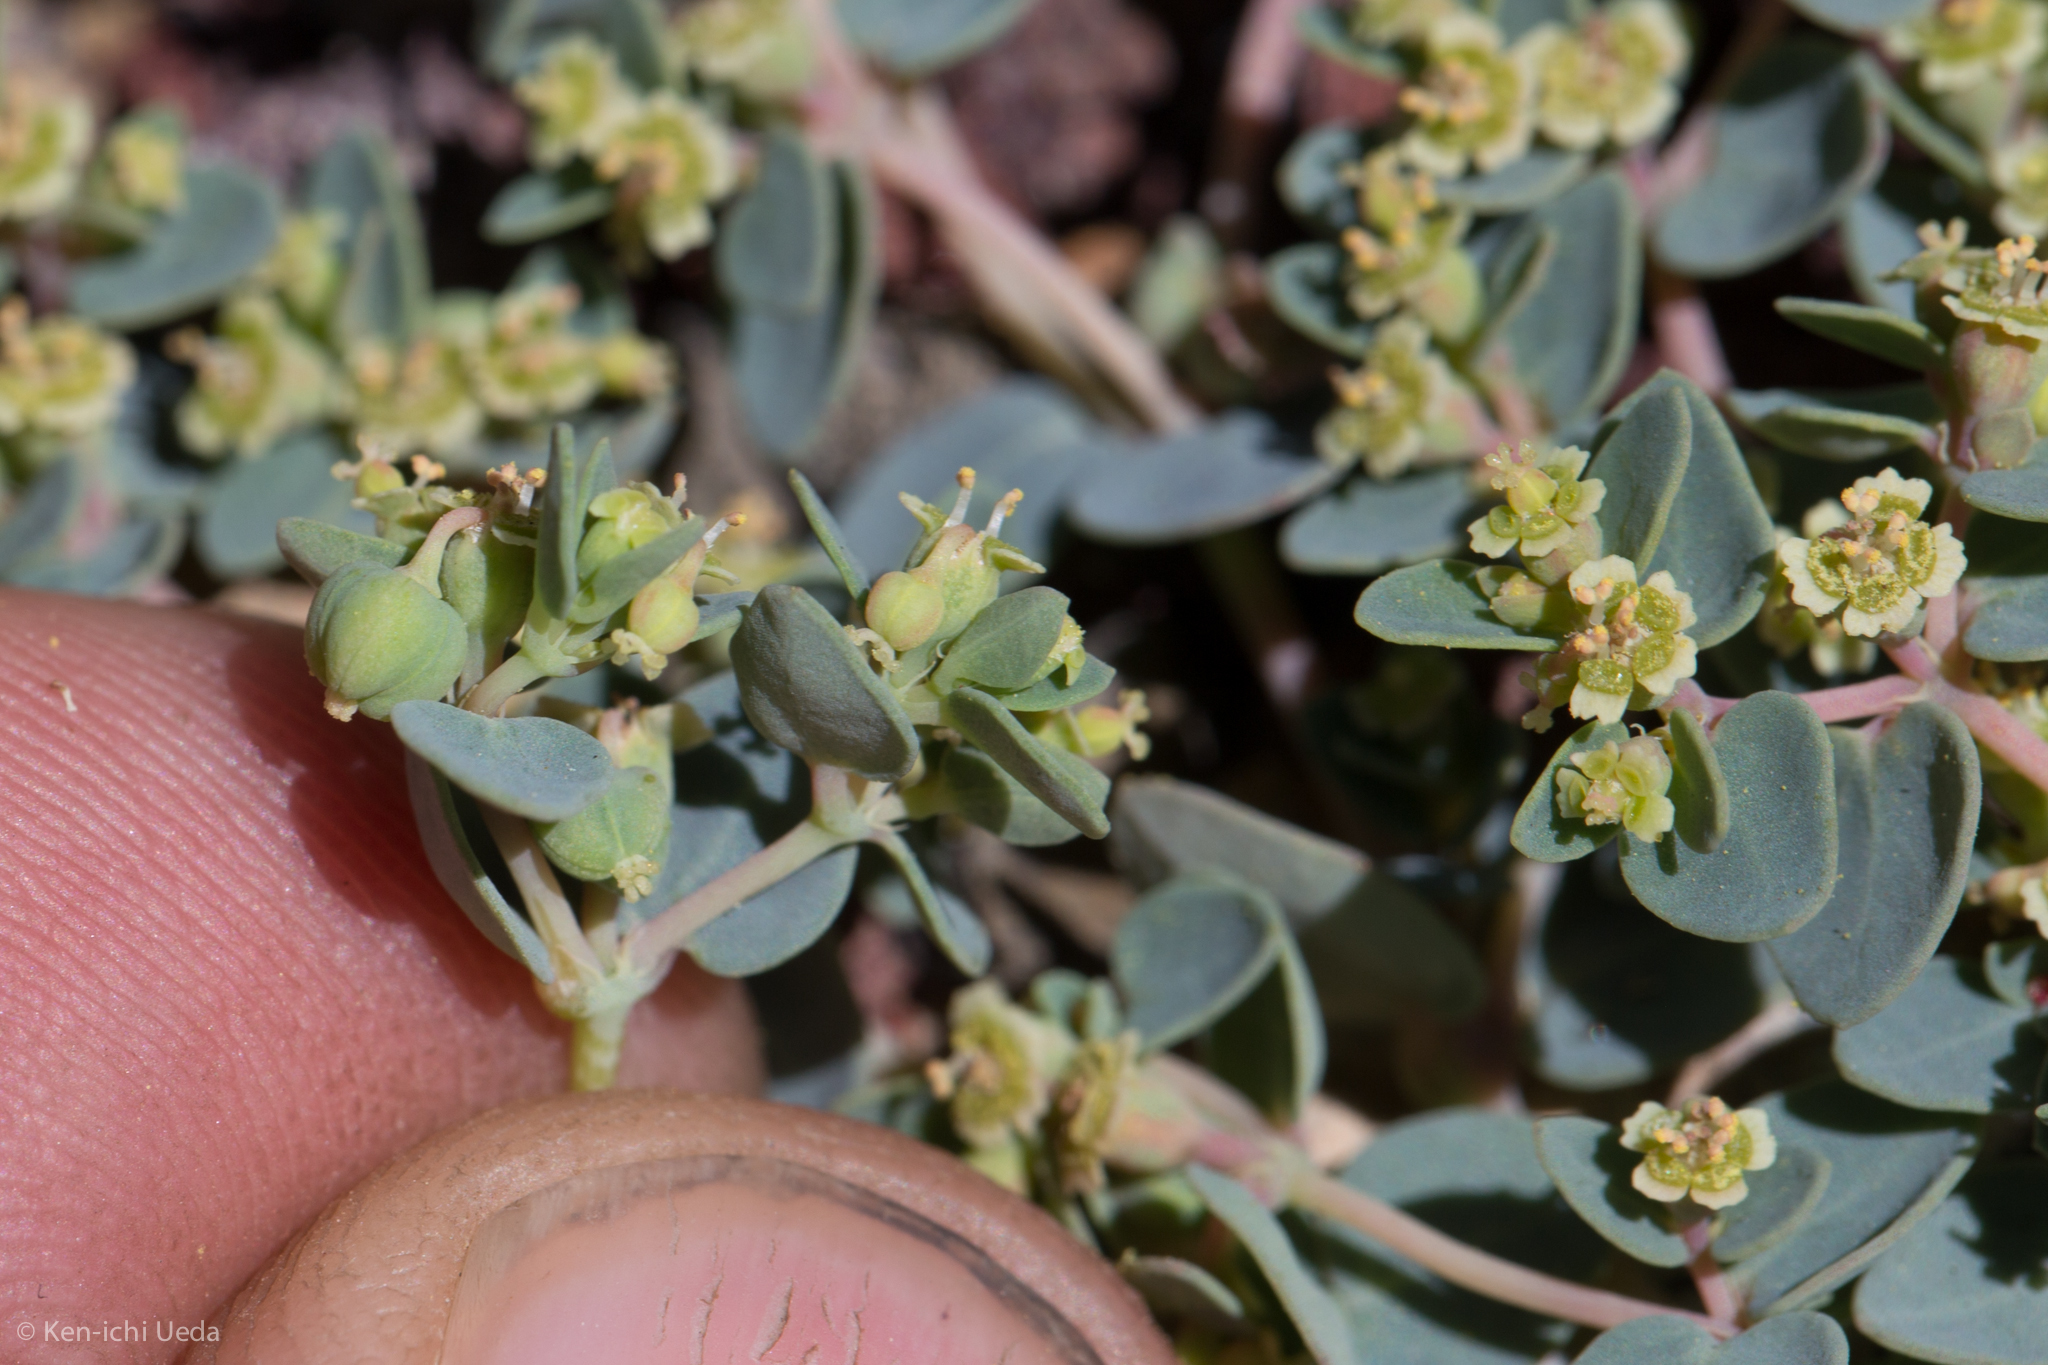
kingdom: Plantae
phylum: Tracheophyta
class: Magnoliopsida
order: Malpighiales
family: Euphorbiaceae
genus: Euphorbia
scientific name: Euphorbia fendleri
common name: Fendler's euphorbia
